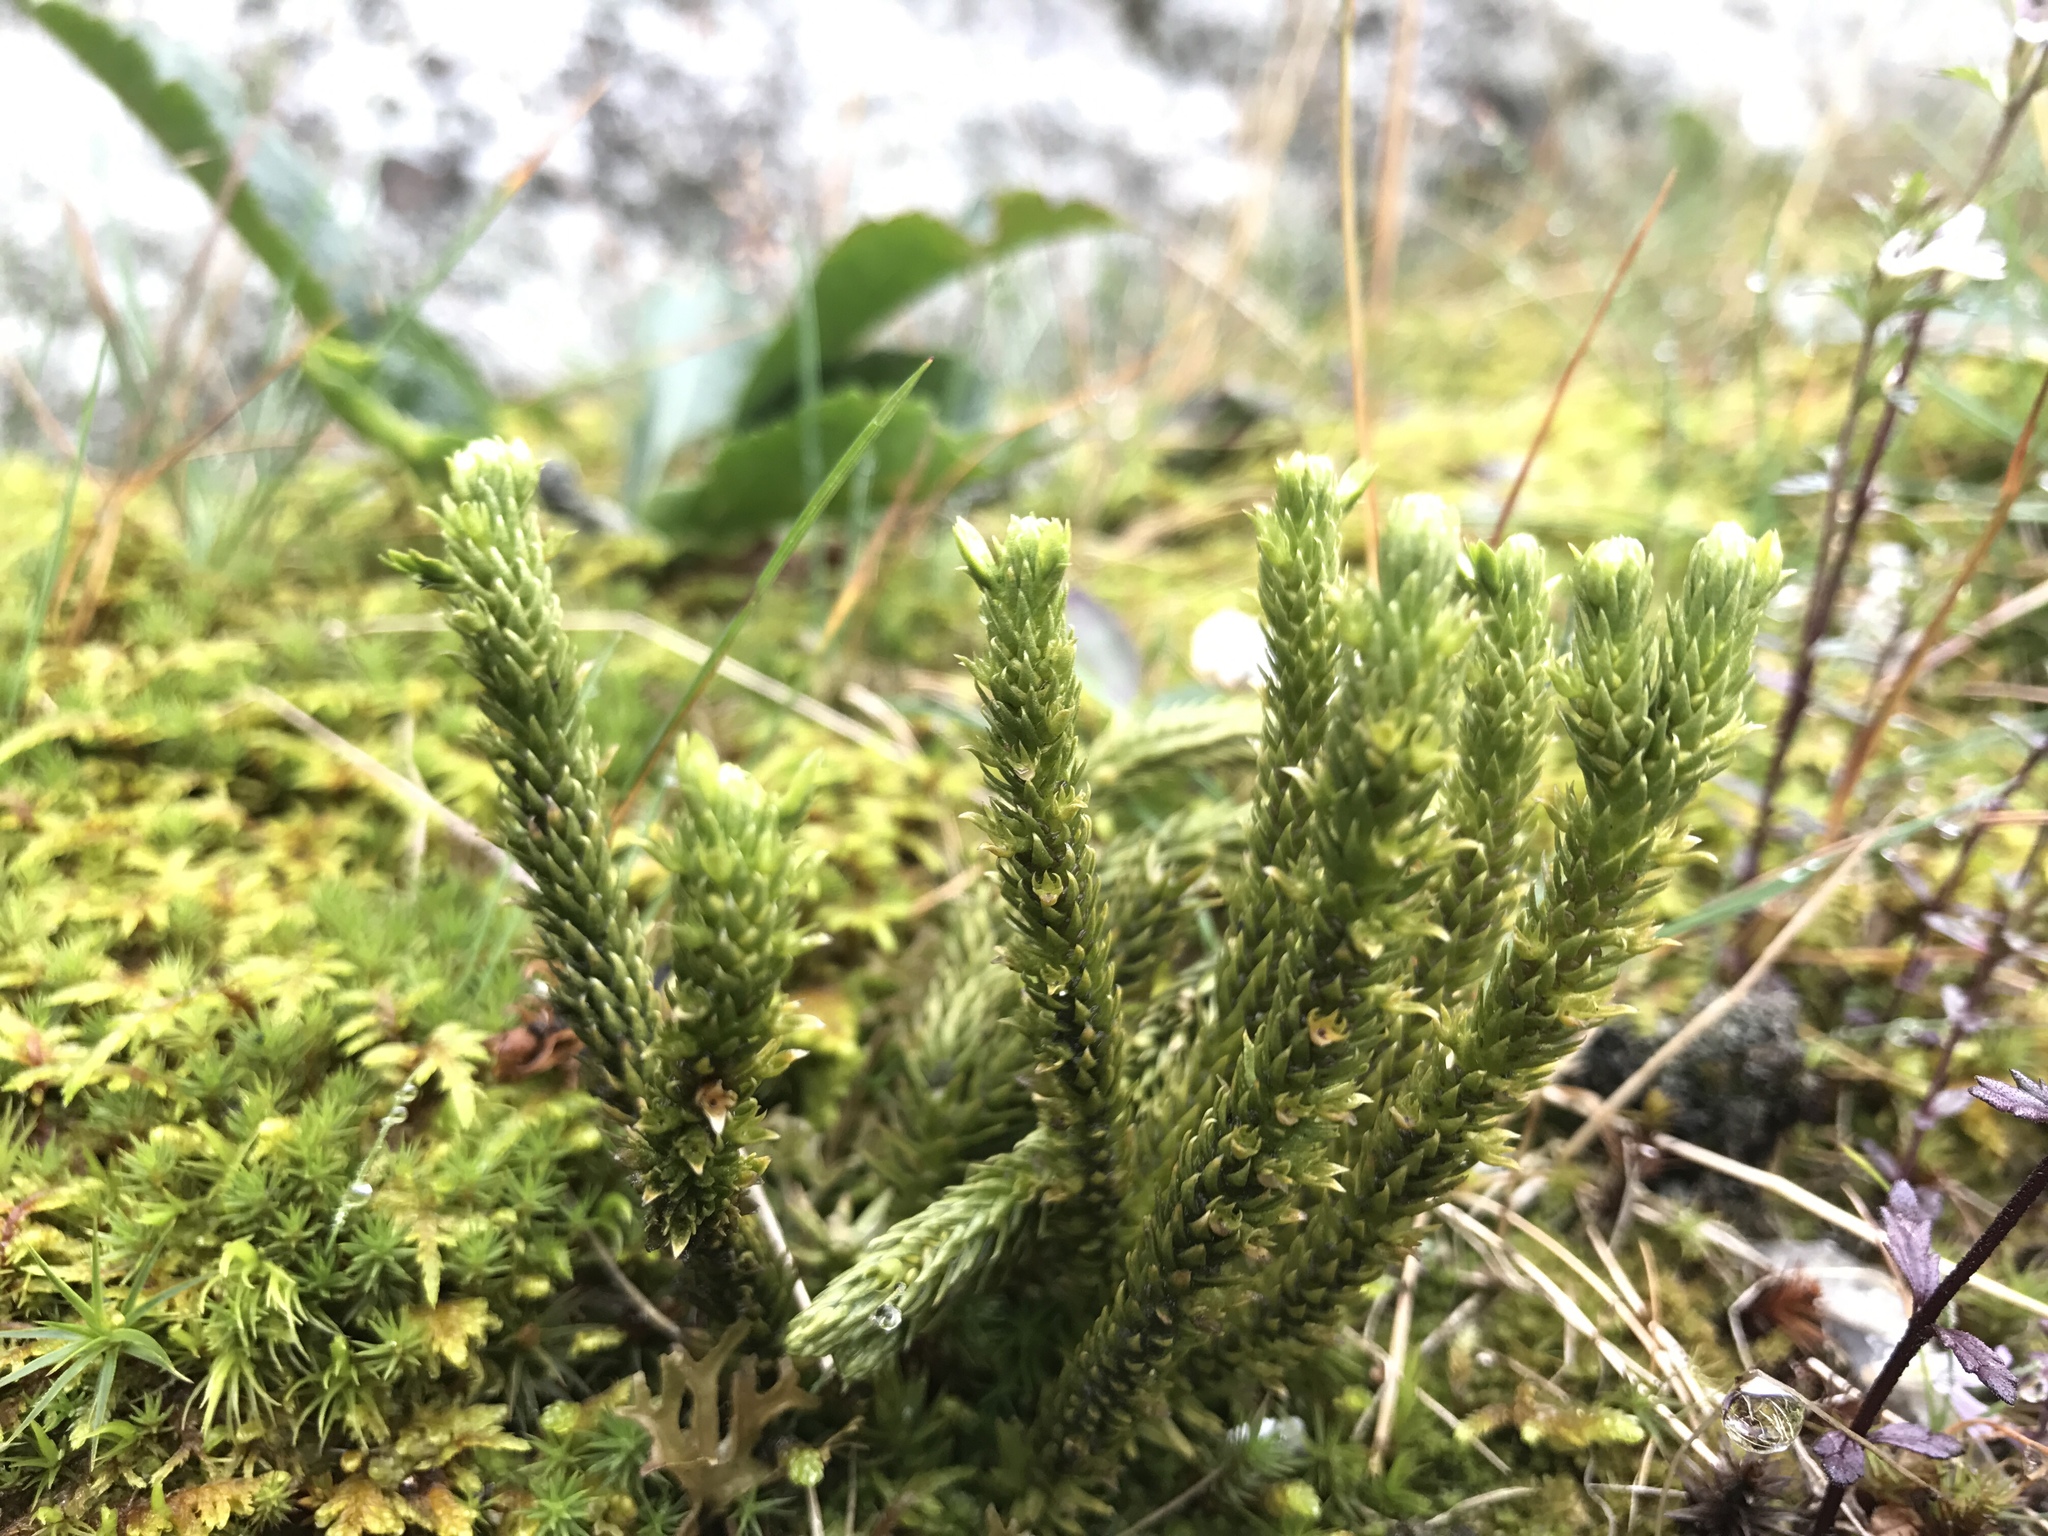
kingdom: Plantae
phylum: Tracheophyta
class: Lycopodiopsida
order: Lycopodiales
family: Lycopodiaceae
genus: Huperzia
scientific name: Huperzia selago
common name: Northern firmoss
